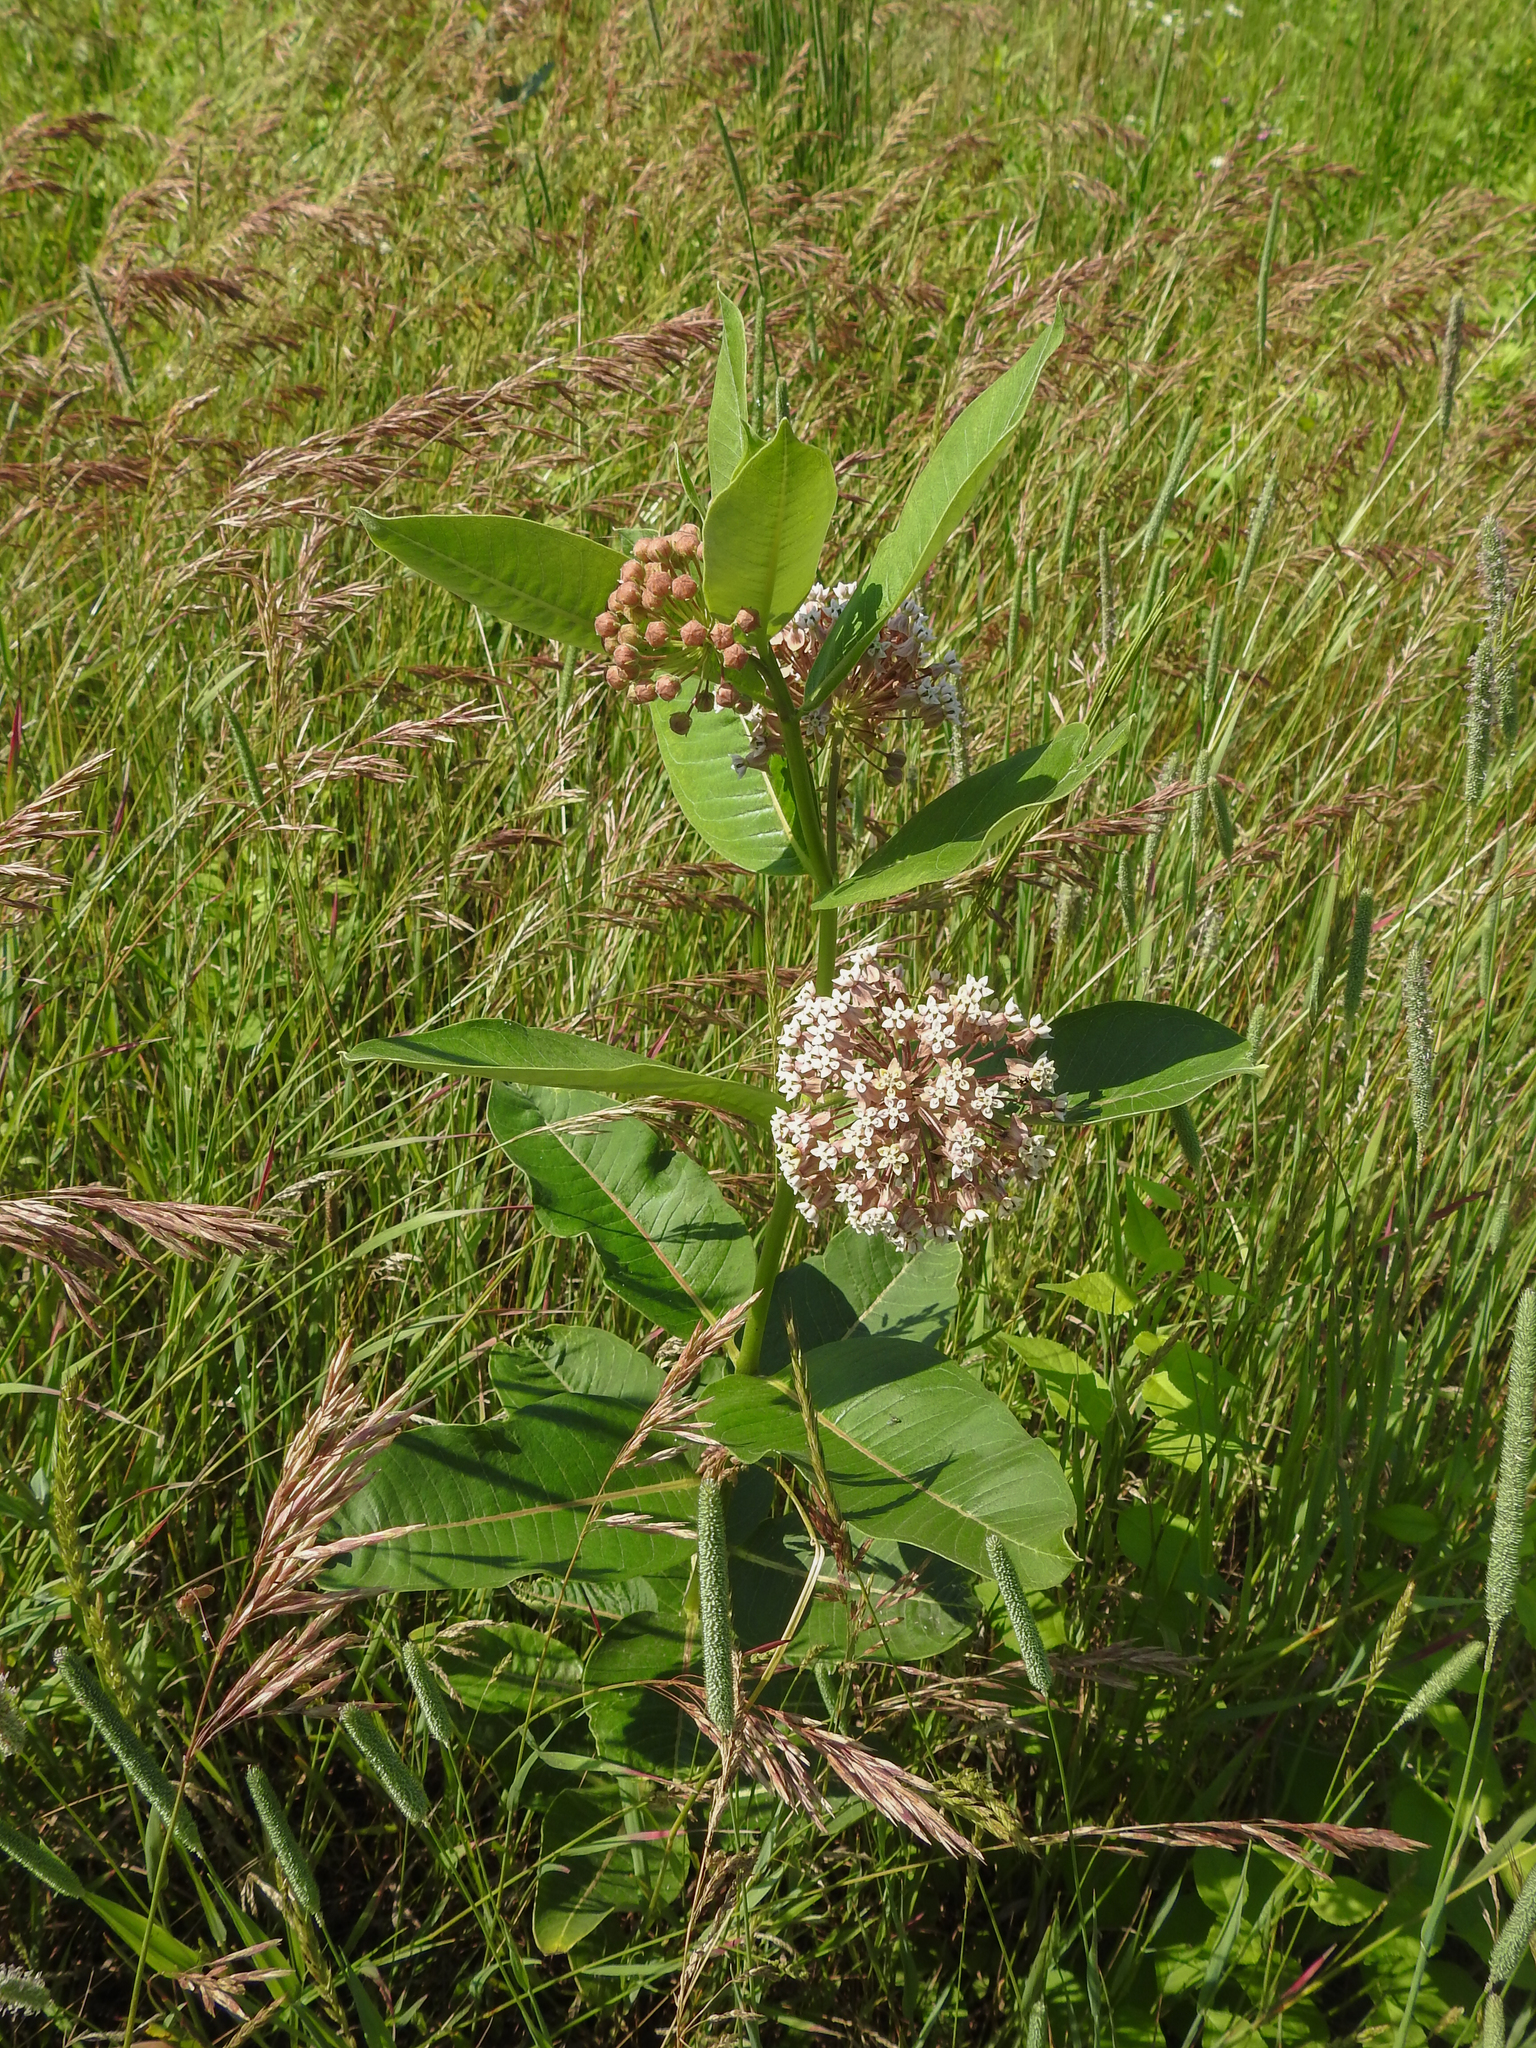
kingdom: Plantae
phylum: Tracheophyta
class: Magnoliopsida
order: Gentianales
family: Apocynaceae
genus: Asclepias
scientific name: Asclepias syriaca
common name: Common milkweed
